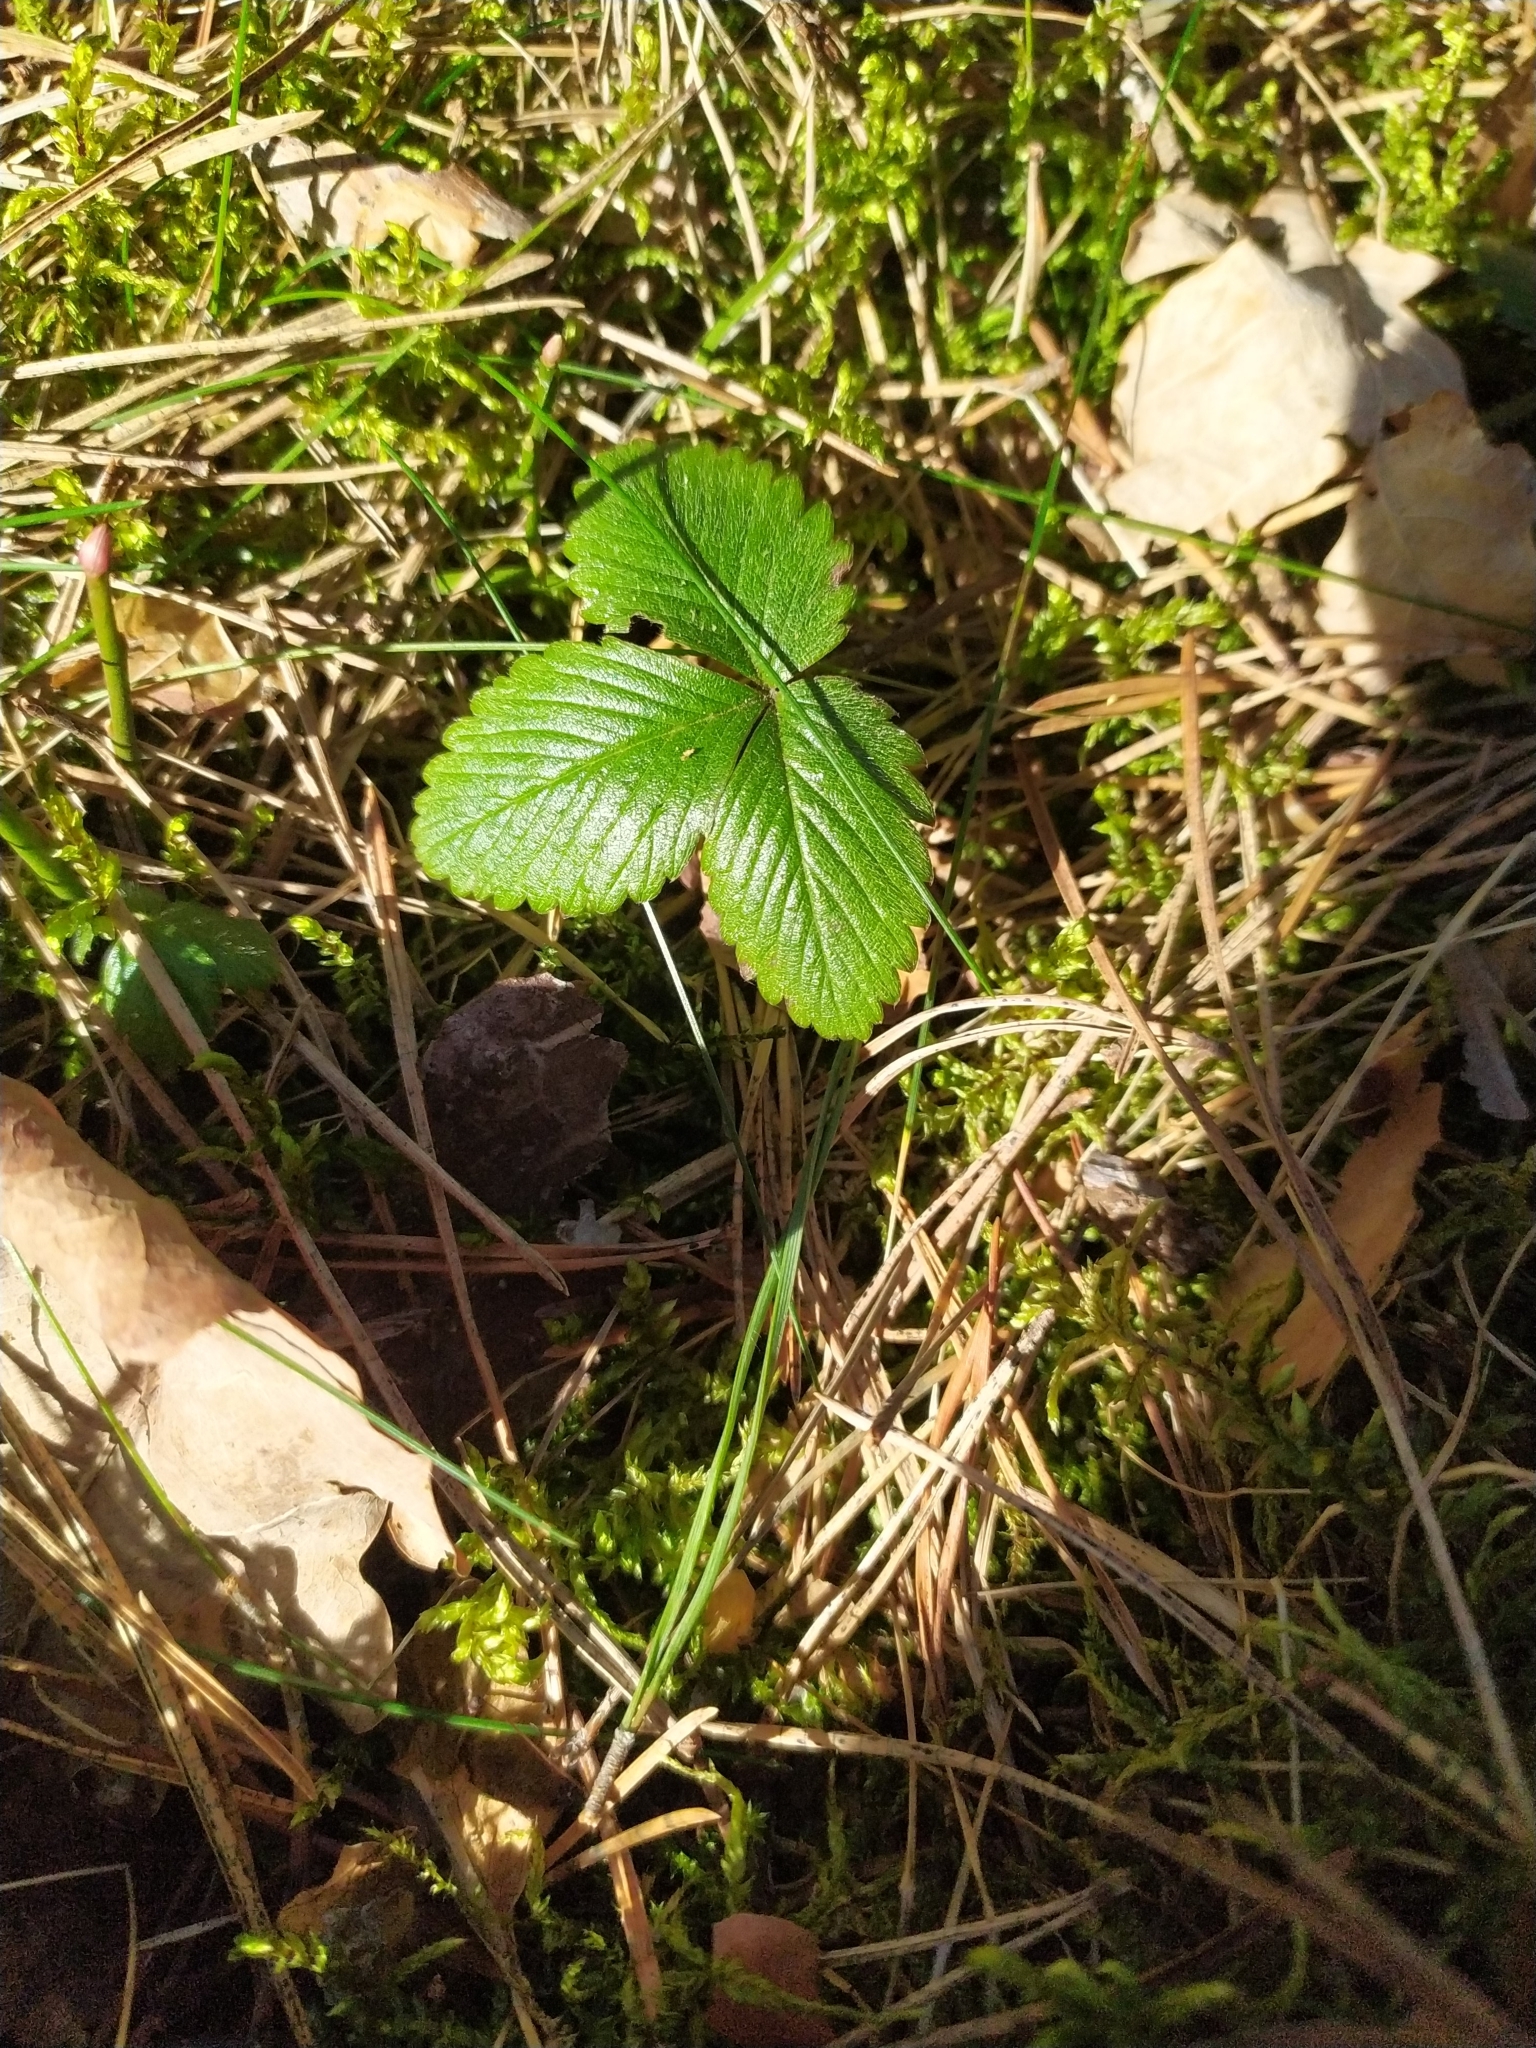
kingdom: Plantae
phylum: Tracheophyta
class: Magnoliopsida
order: Rosales
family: Rosaceae
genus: Fragaria
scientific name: Fragaria vesca
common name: Wild strawberry
